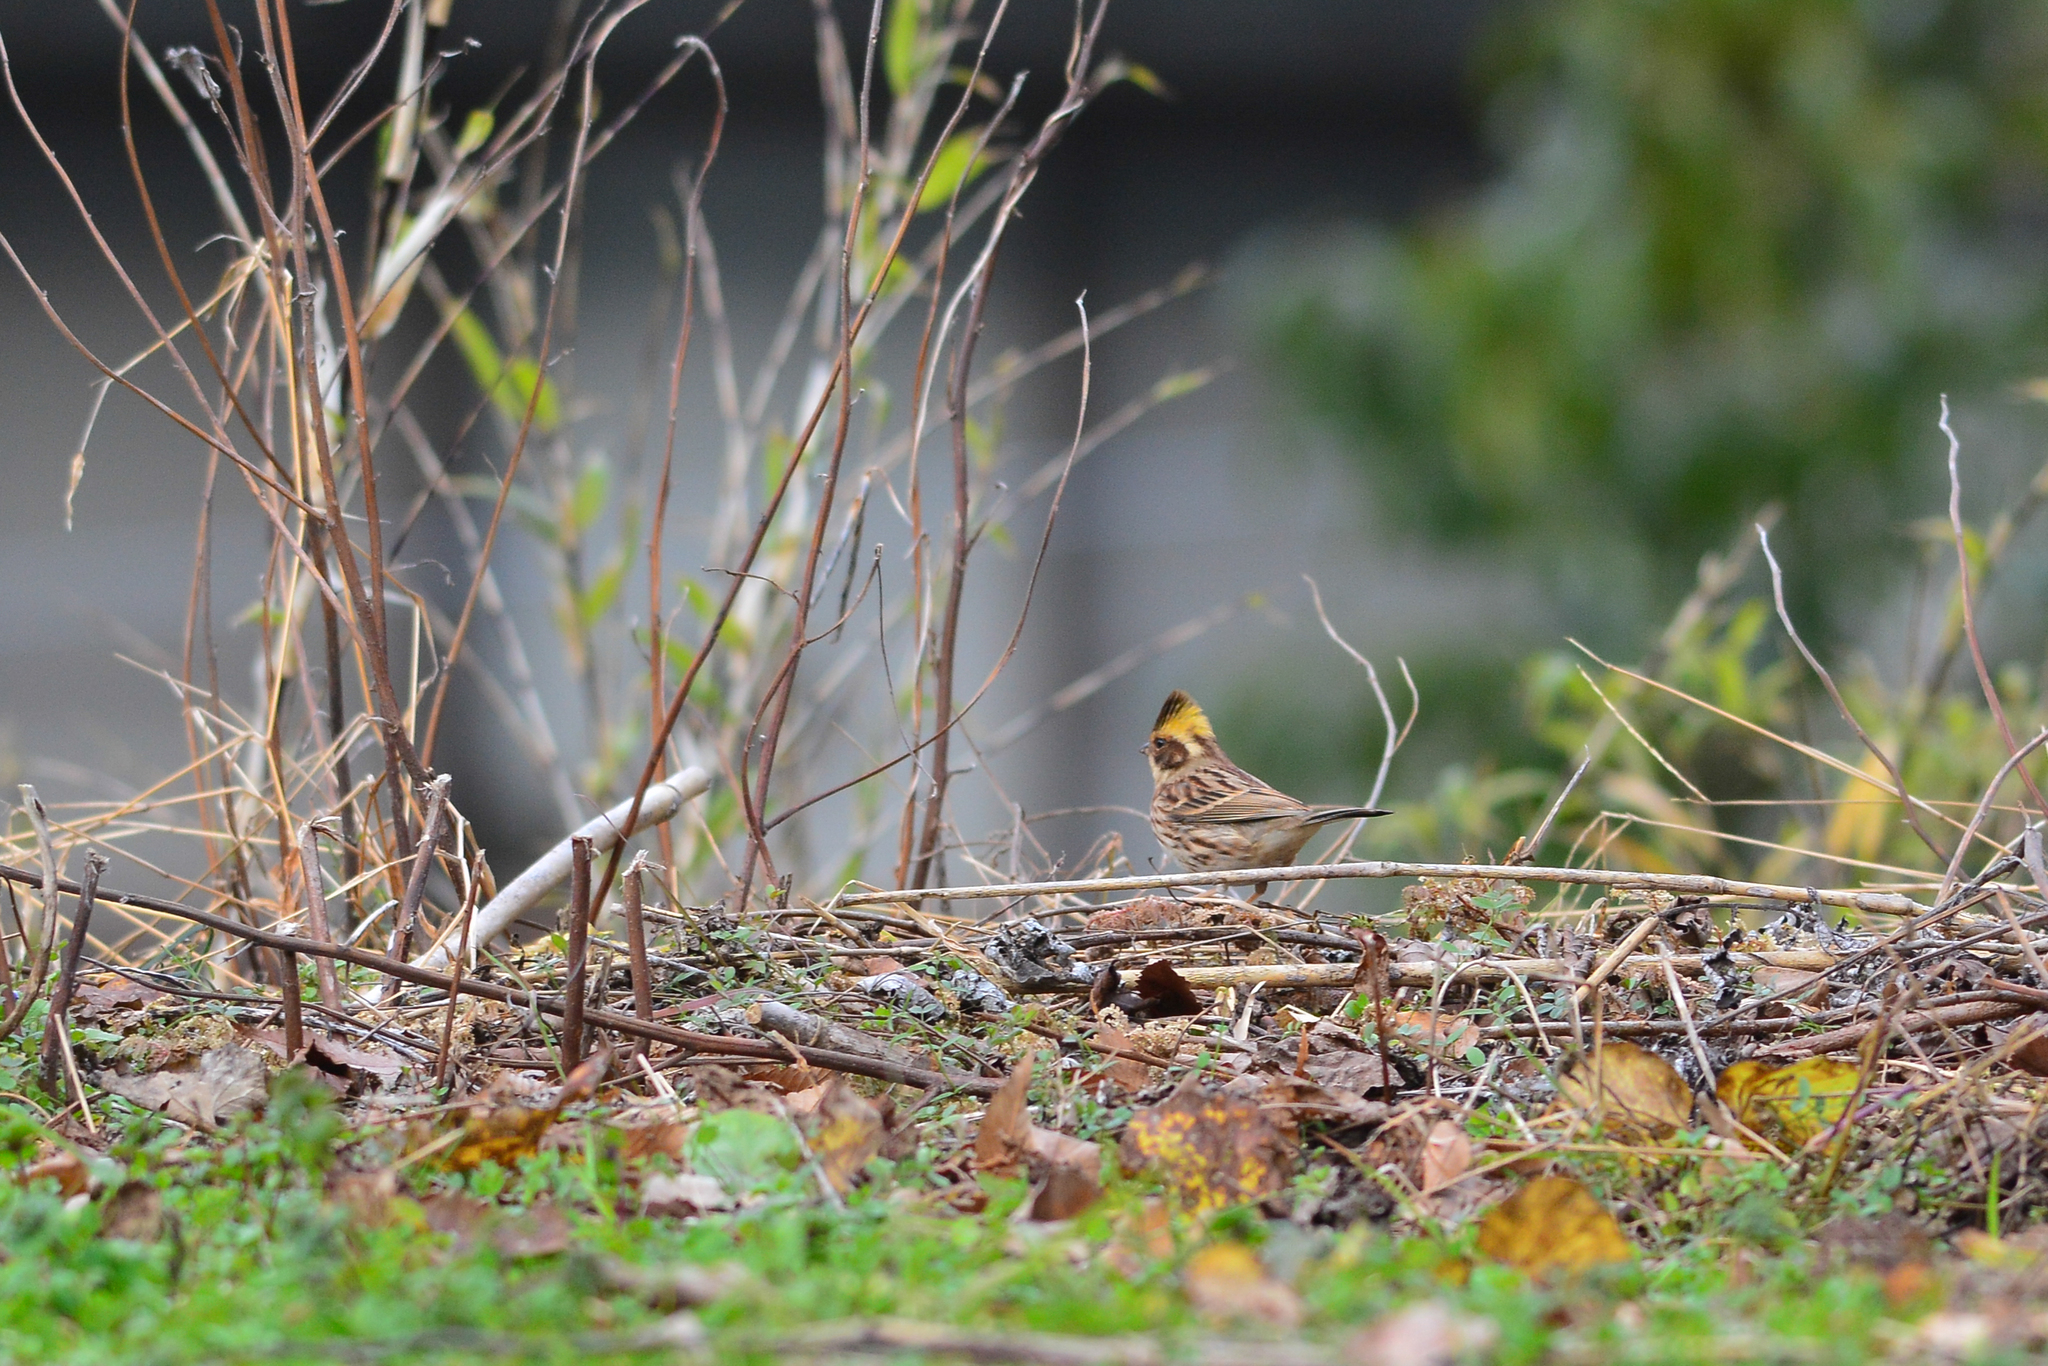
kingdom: Animalia
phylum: Chordata
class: Aves
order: Passeriformes
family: Emberizidae
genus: Emberiza
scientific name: Emberiza elegans
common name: Yellow-throated bunting
